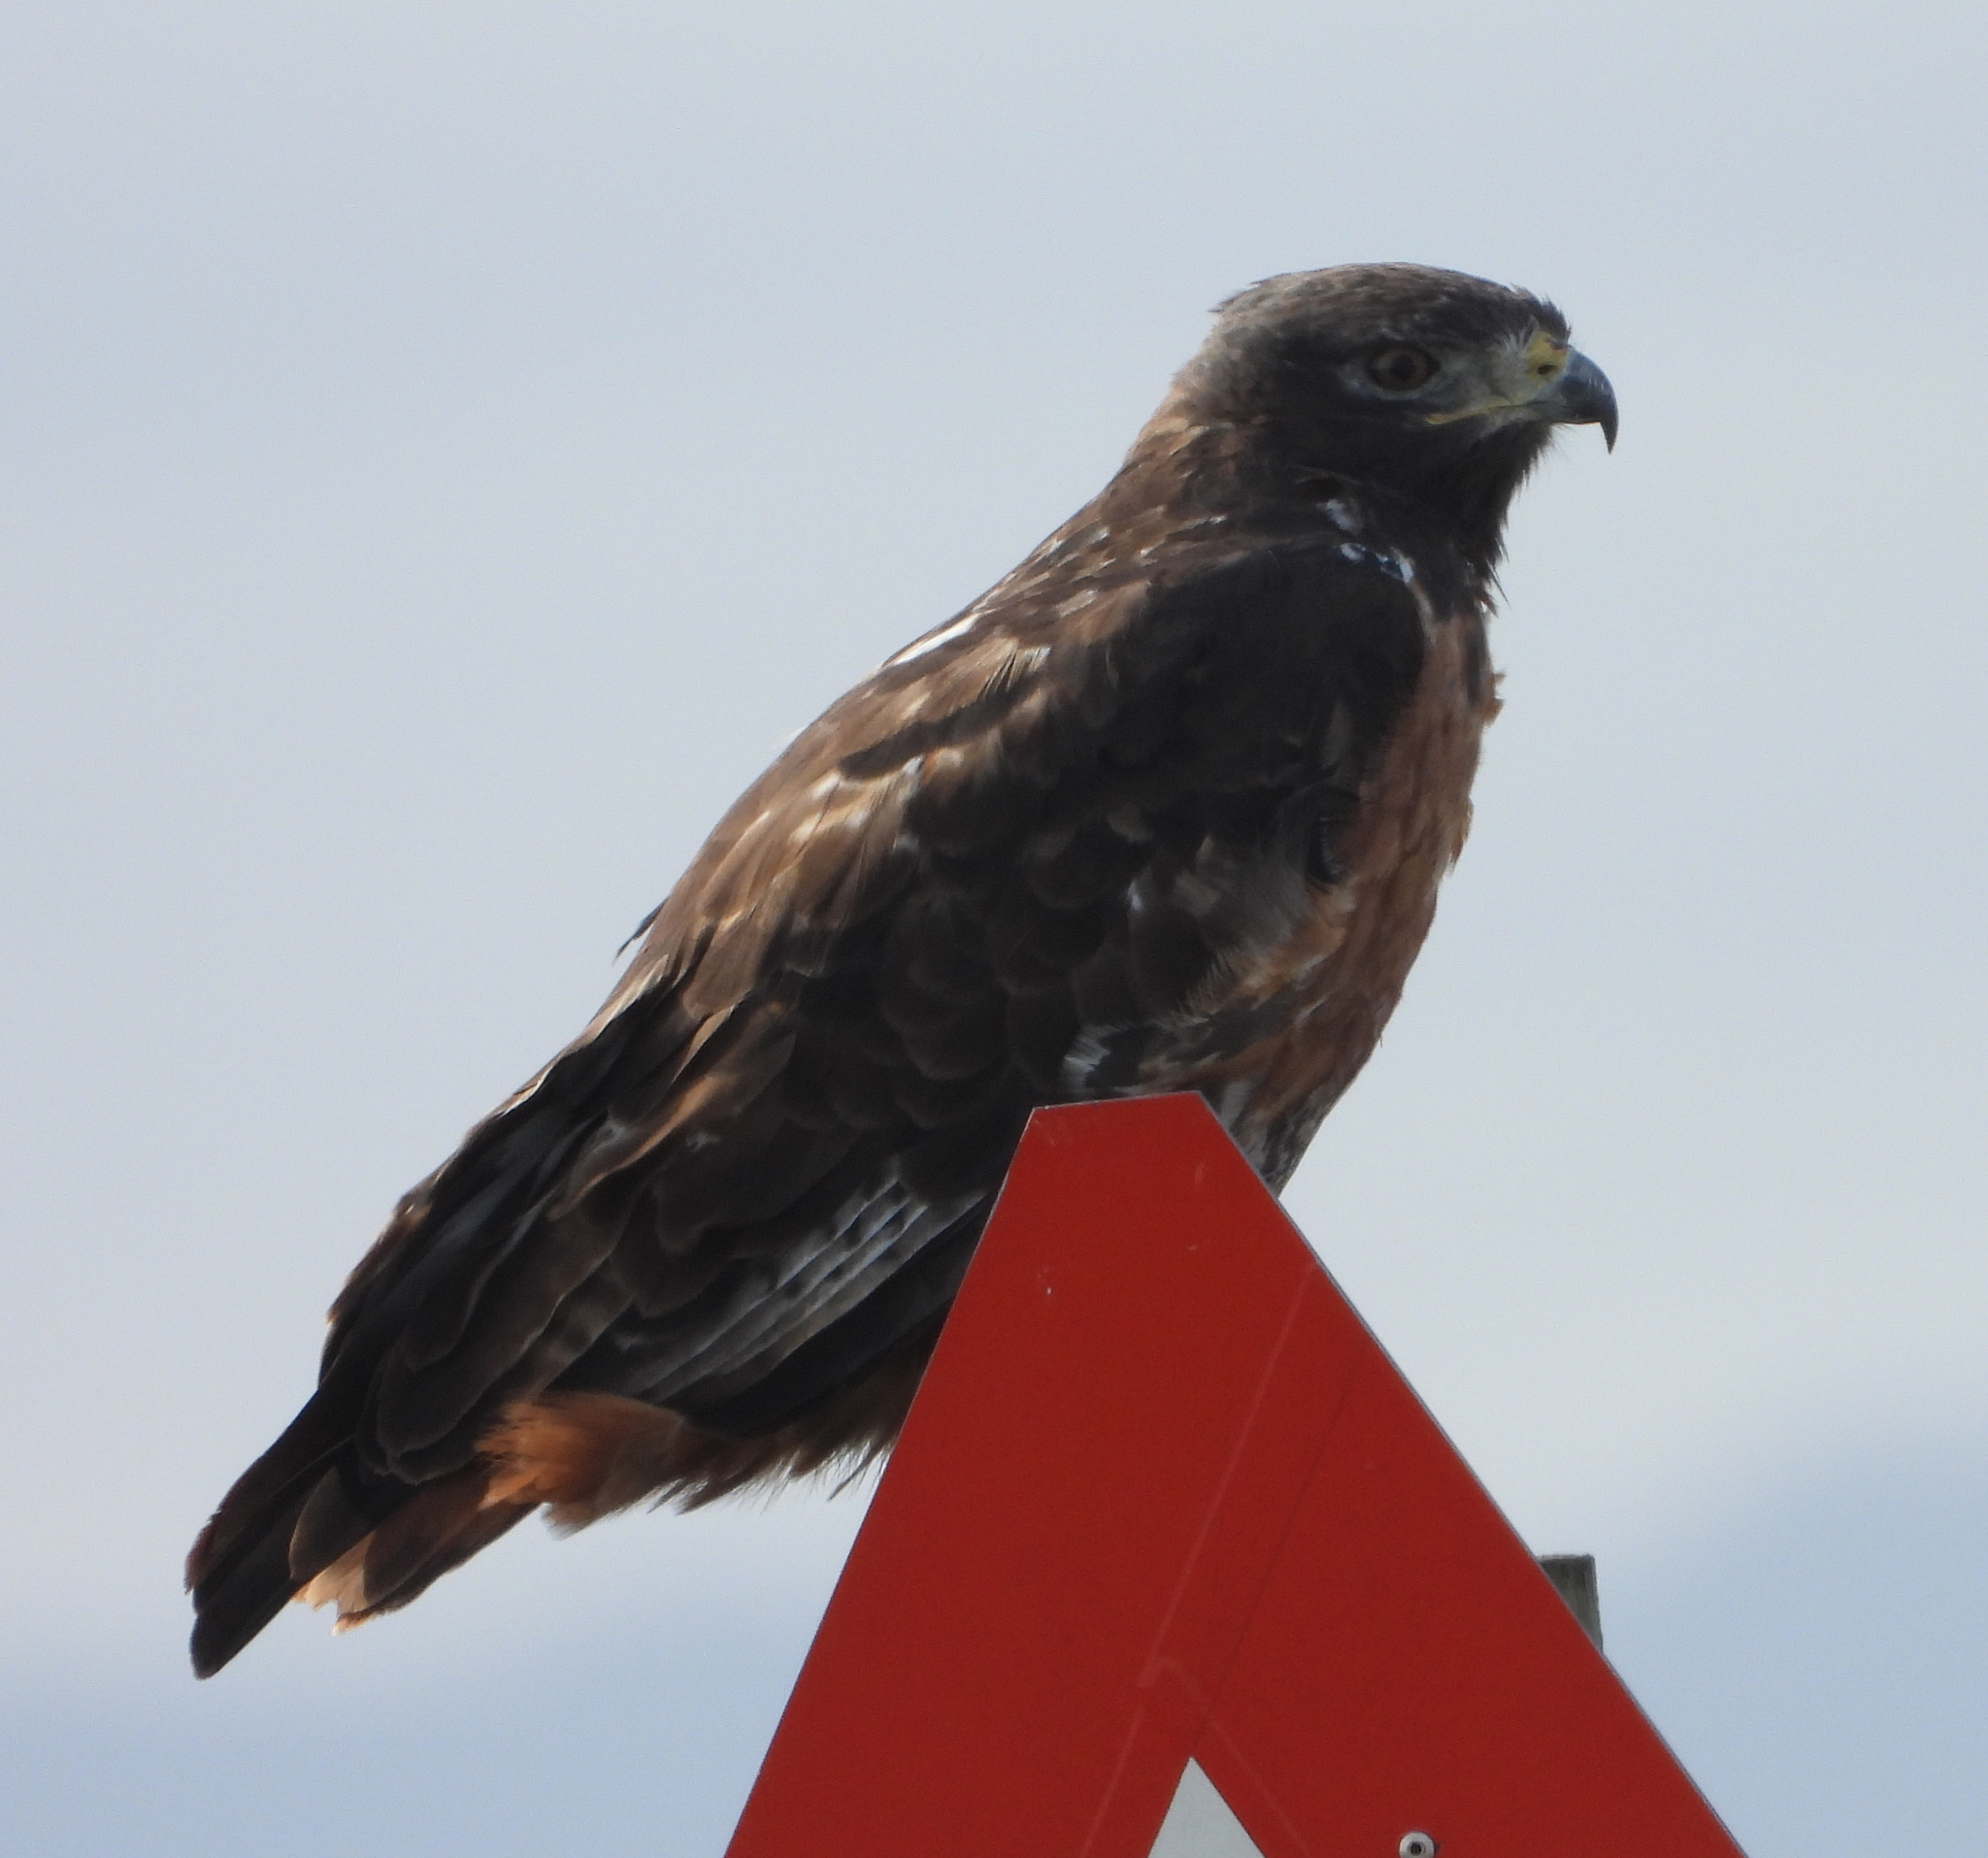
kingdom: Animalia
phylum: Chordata
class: Aves
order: Accipitriformes
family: Accipitridae
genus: Buteo
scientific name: Buteo rufofuscus
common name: Jackal buzzard
